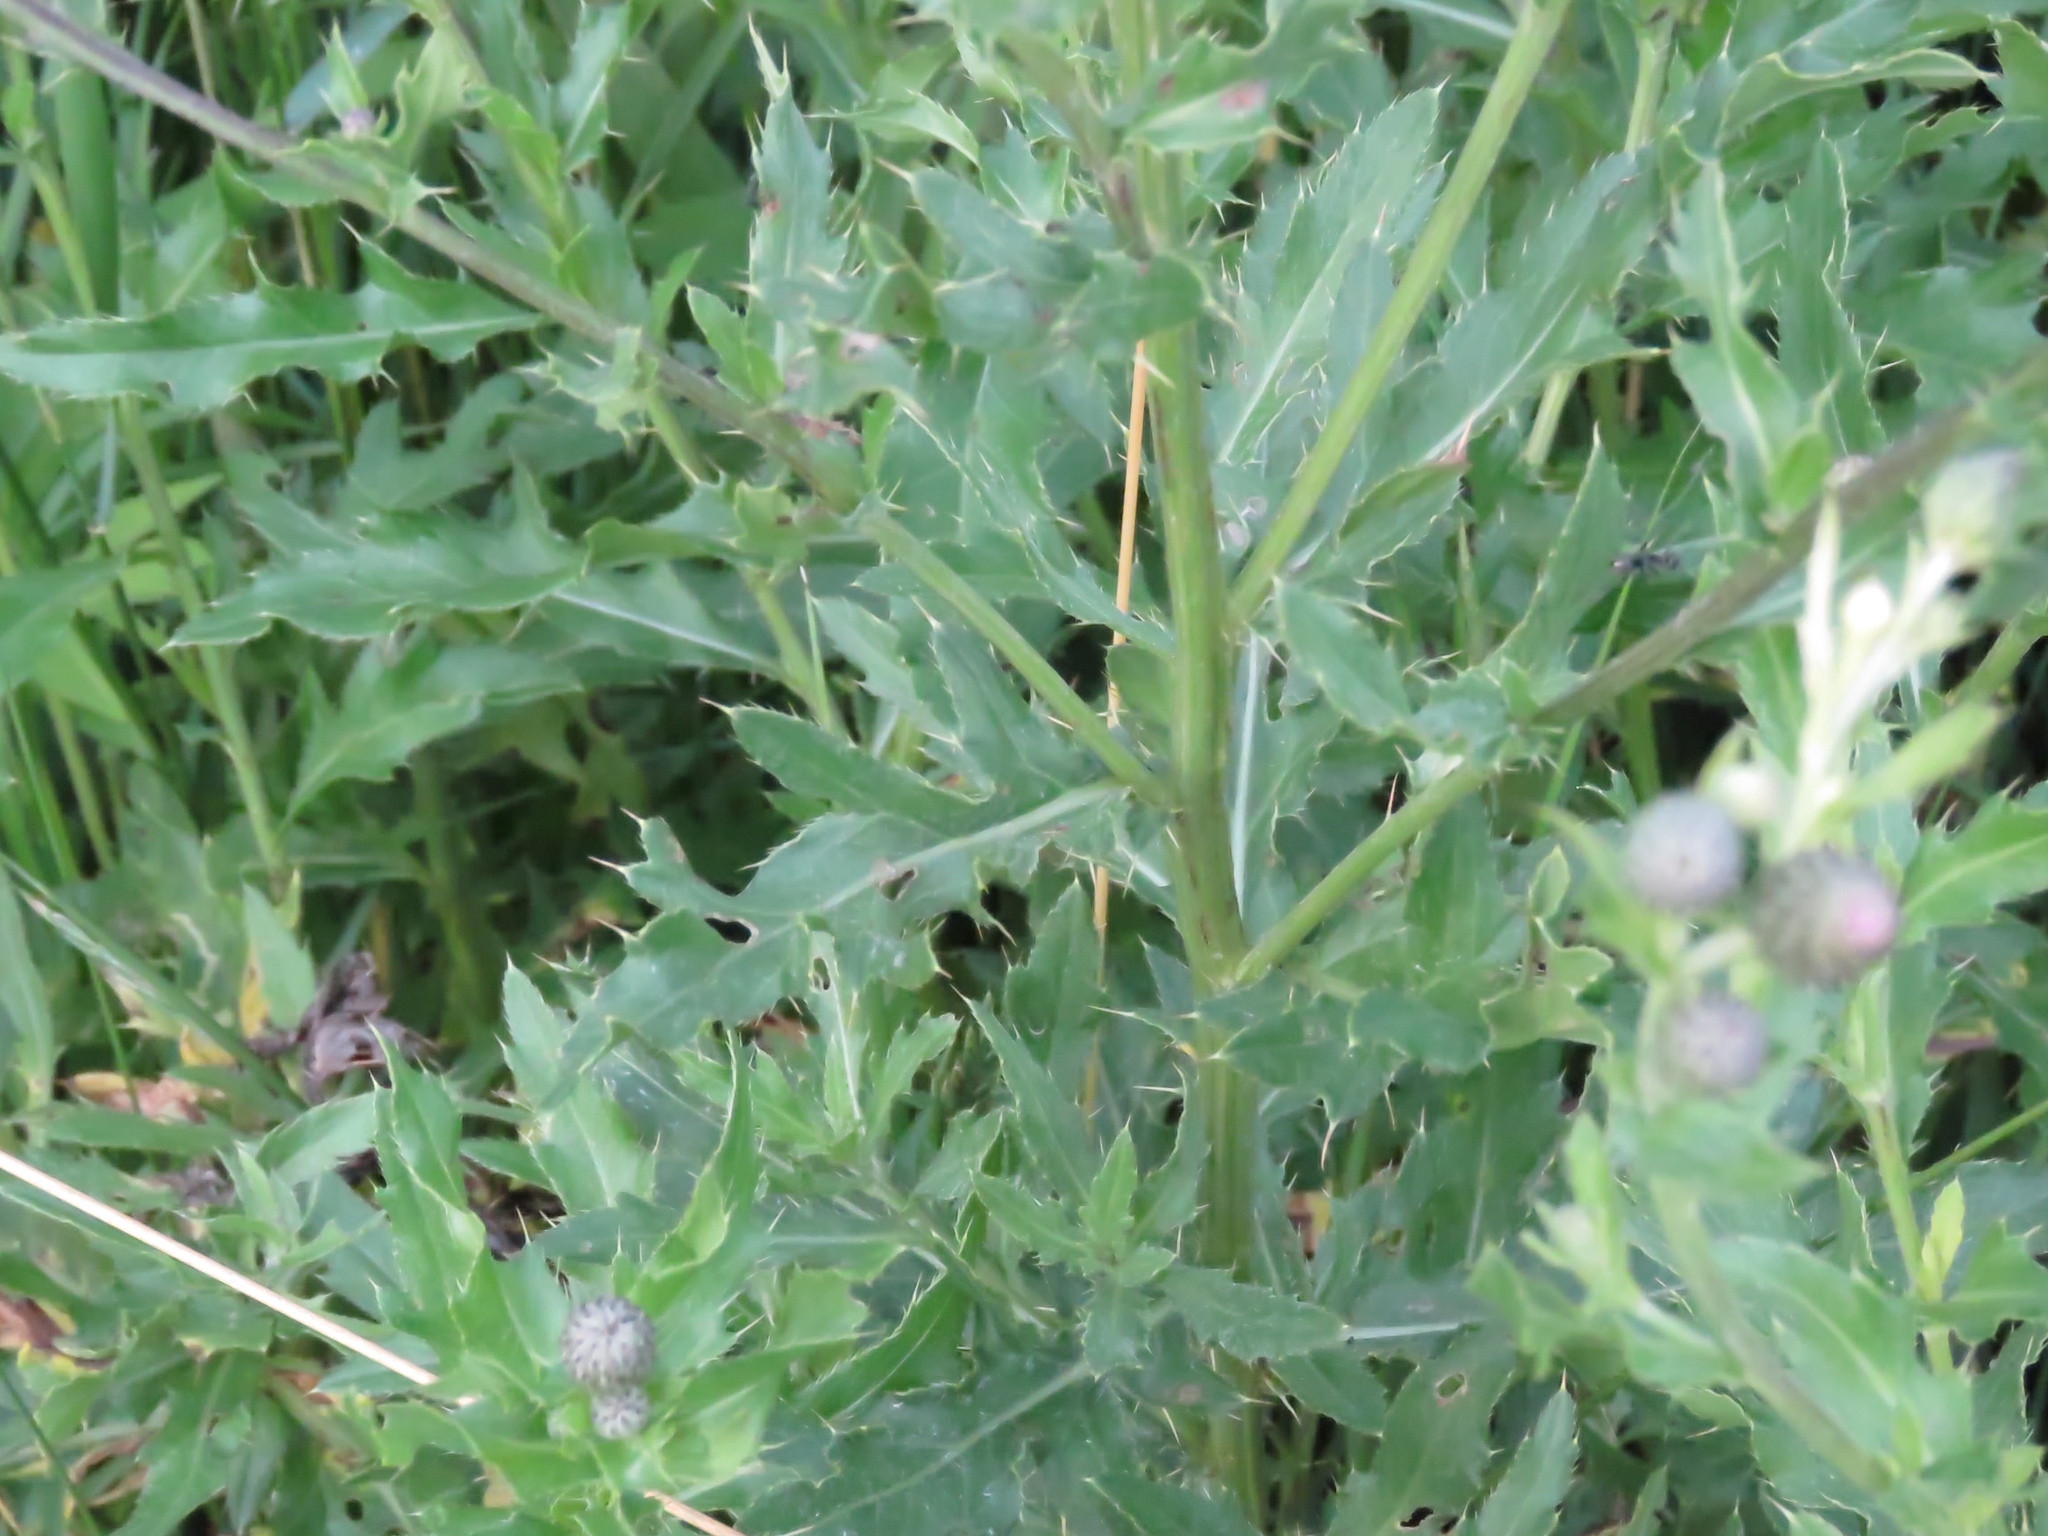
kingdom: Plantae
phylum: Tracheophyta
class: Magnoliopsida
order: Asterales
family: Asteraceae
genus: Cirsium
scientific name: Cirsium arvense
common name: Creeping thistle
